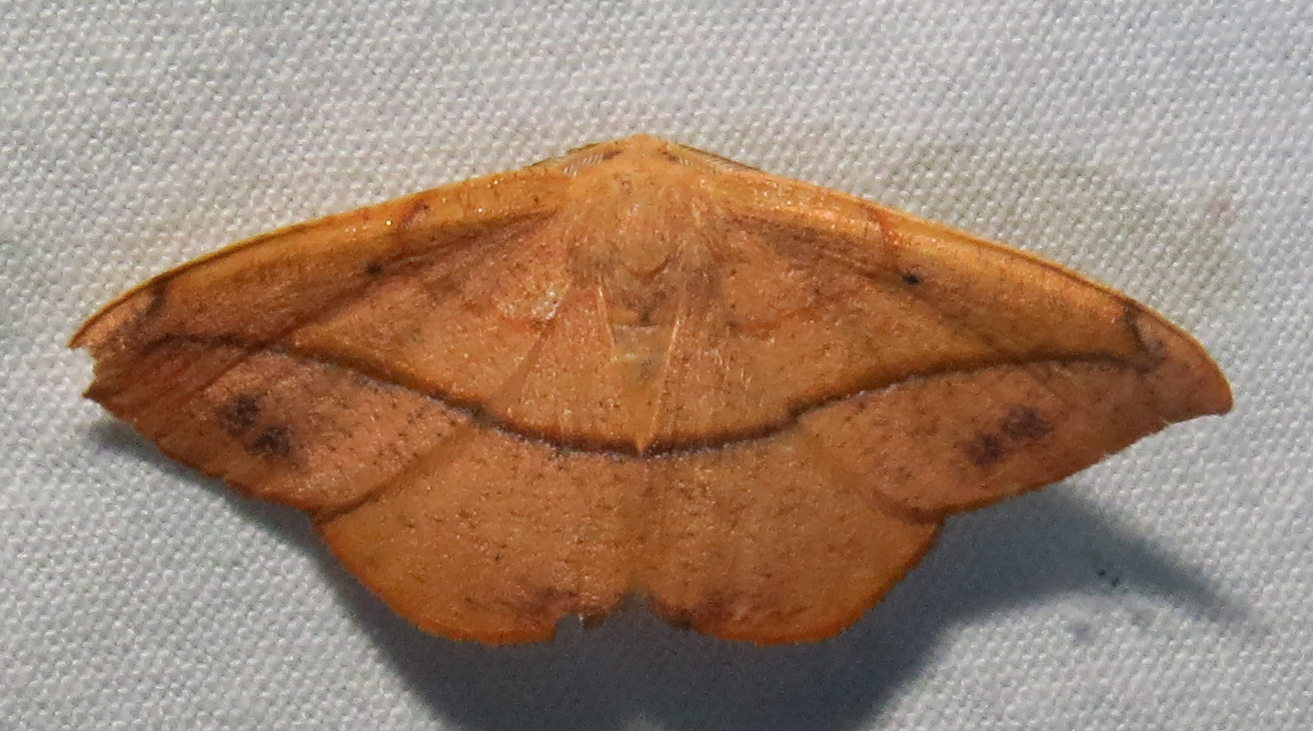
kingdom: Animalia
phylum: Arthropoda
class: Insecta
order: Lepidoptera
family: Geometridae
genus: Patalene
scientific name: Patalene olyzonaria
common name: Juniper geometer moth
